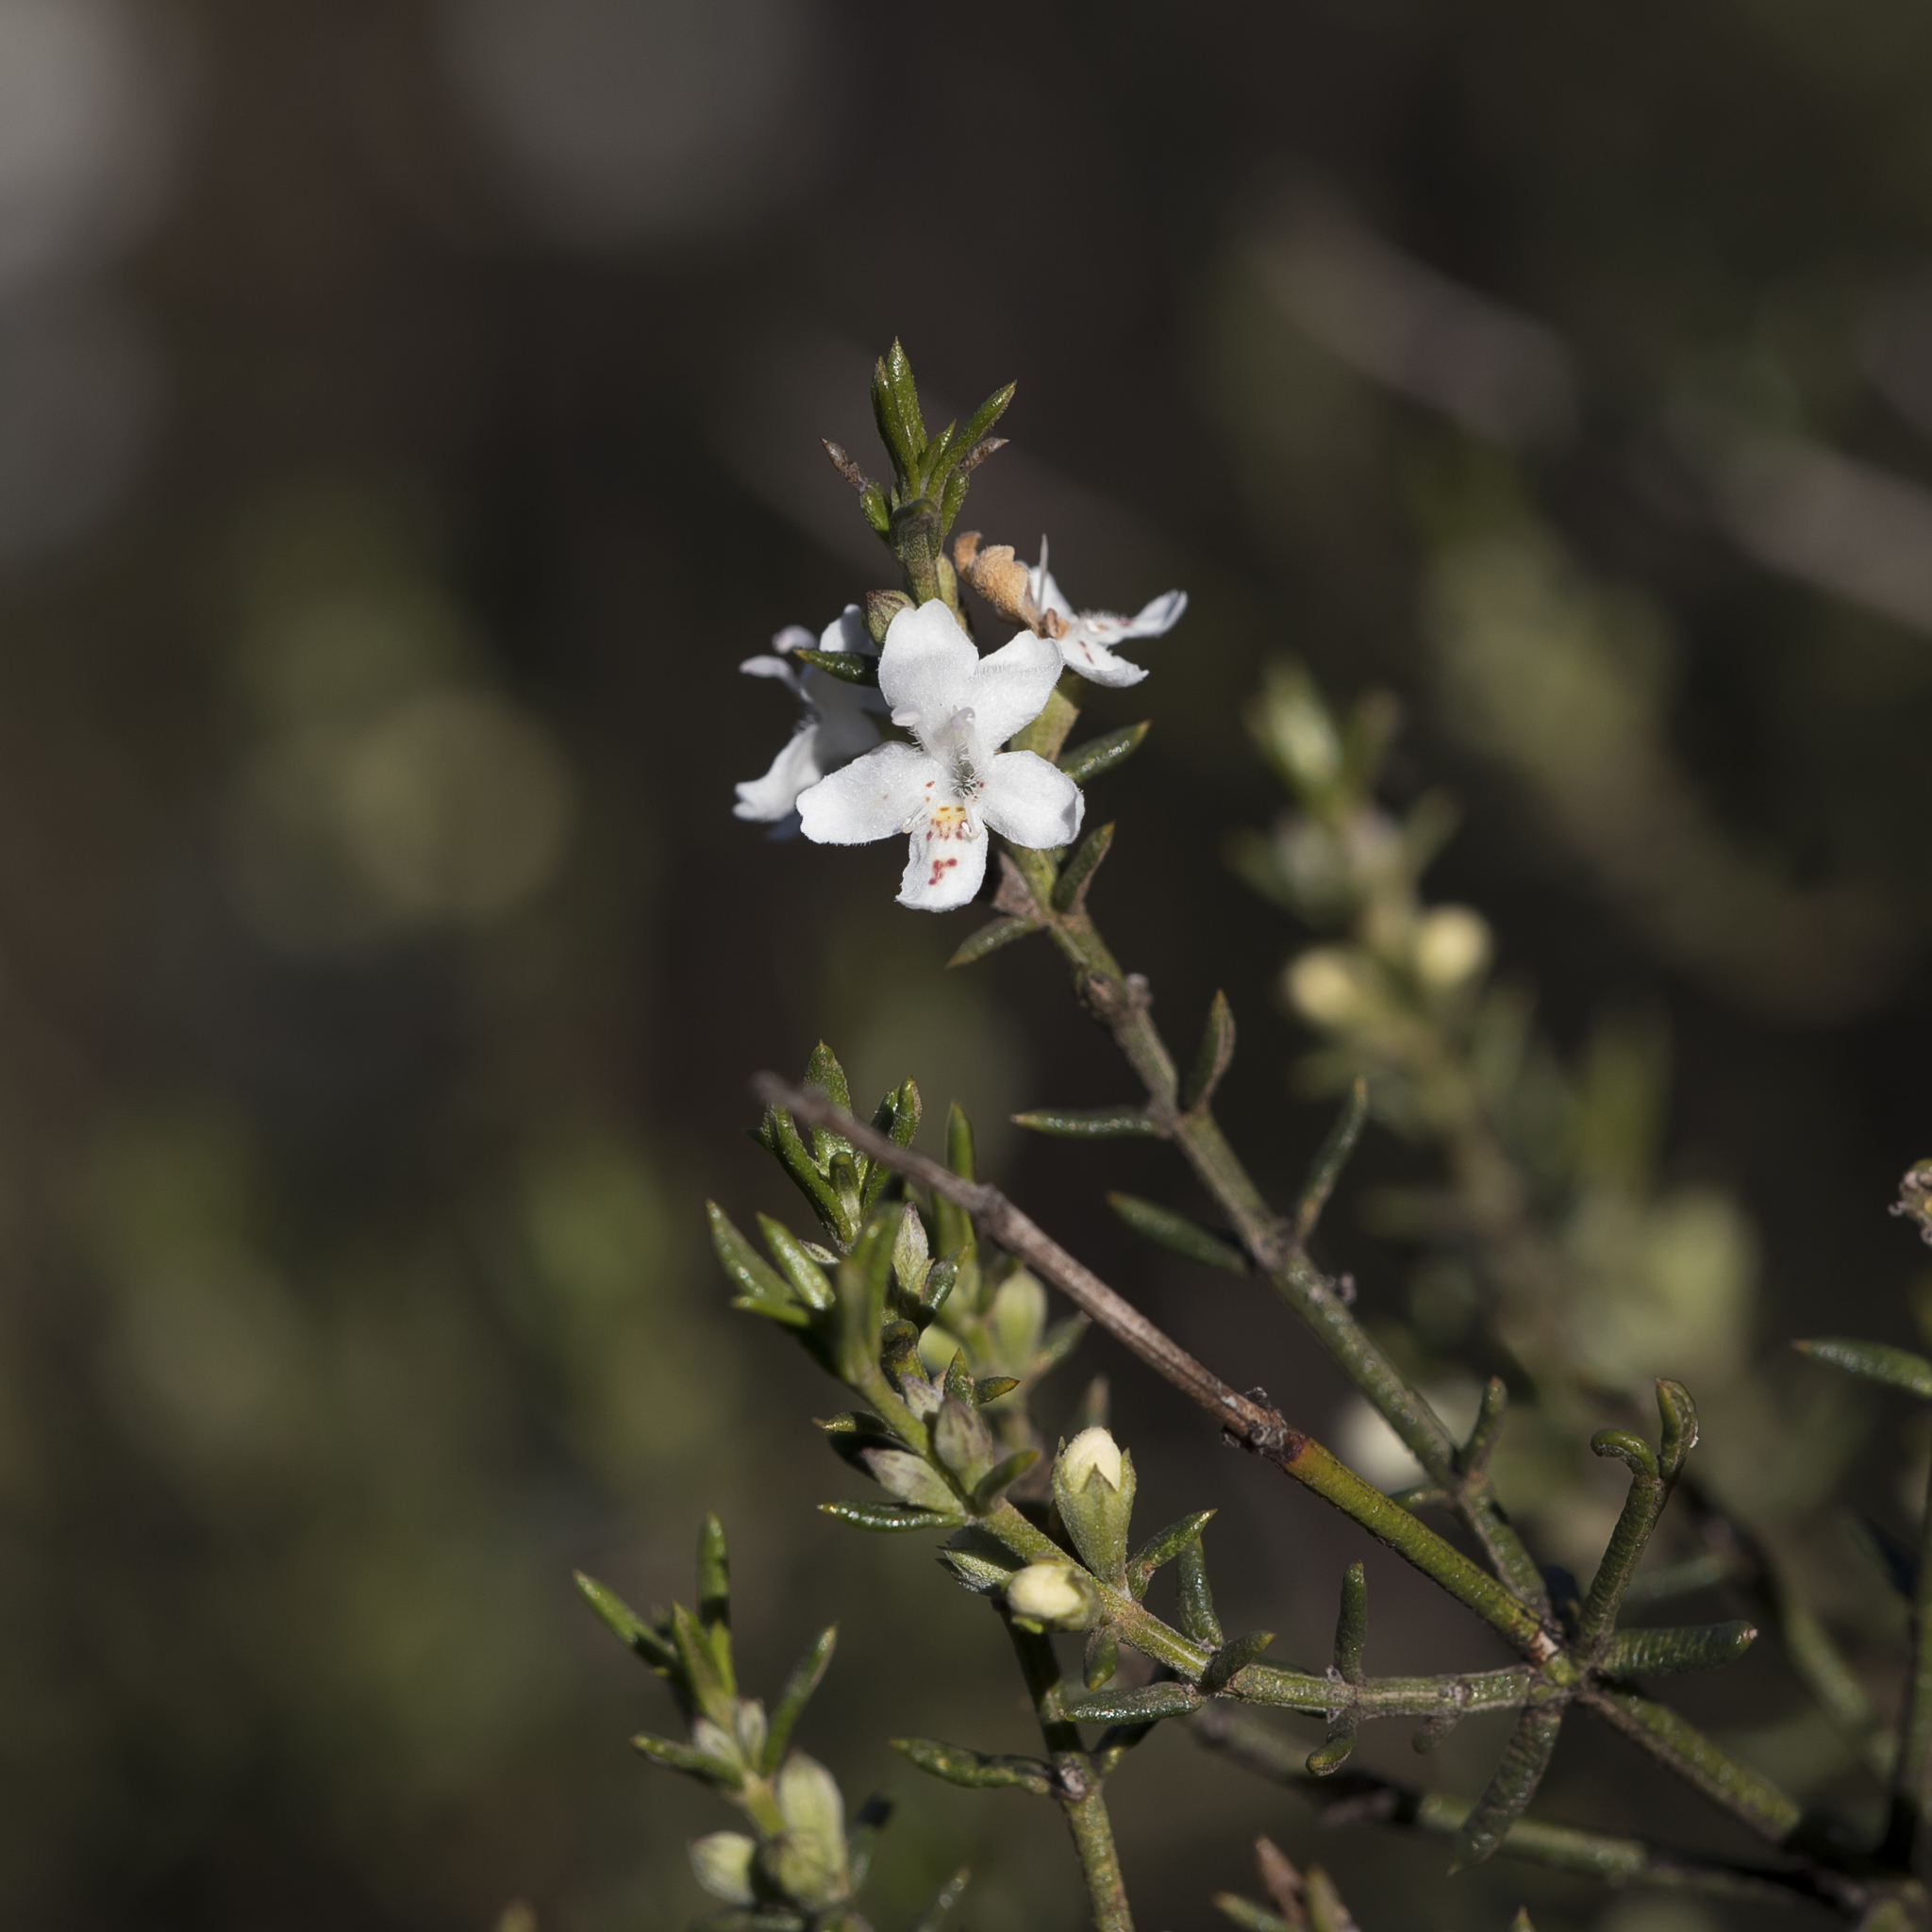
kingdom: Plantae
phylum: Tracheophyta
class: Magnoliopsida
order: Lamiales
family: Lamiaceae
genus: Westringia
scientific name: Westringia rigida
